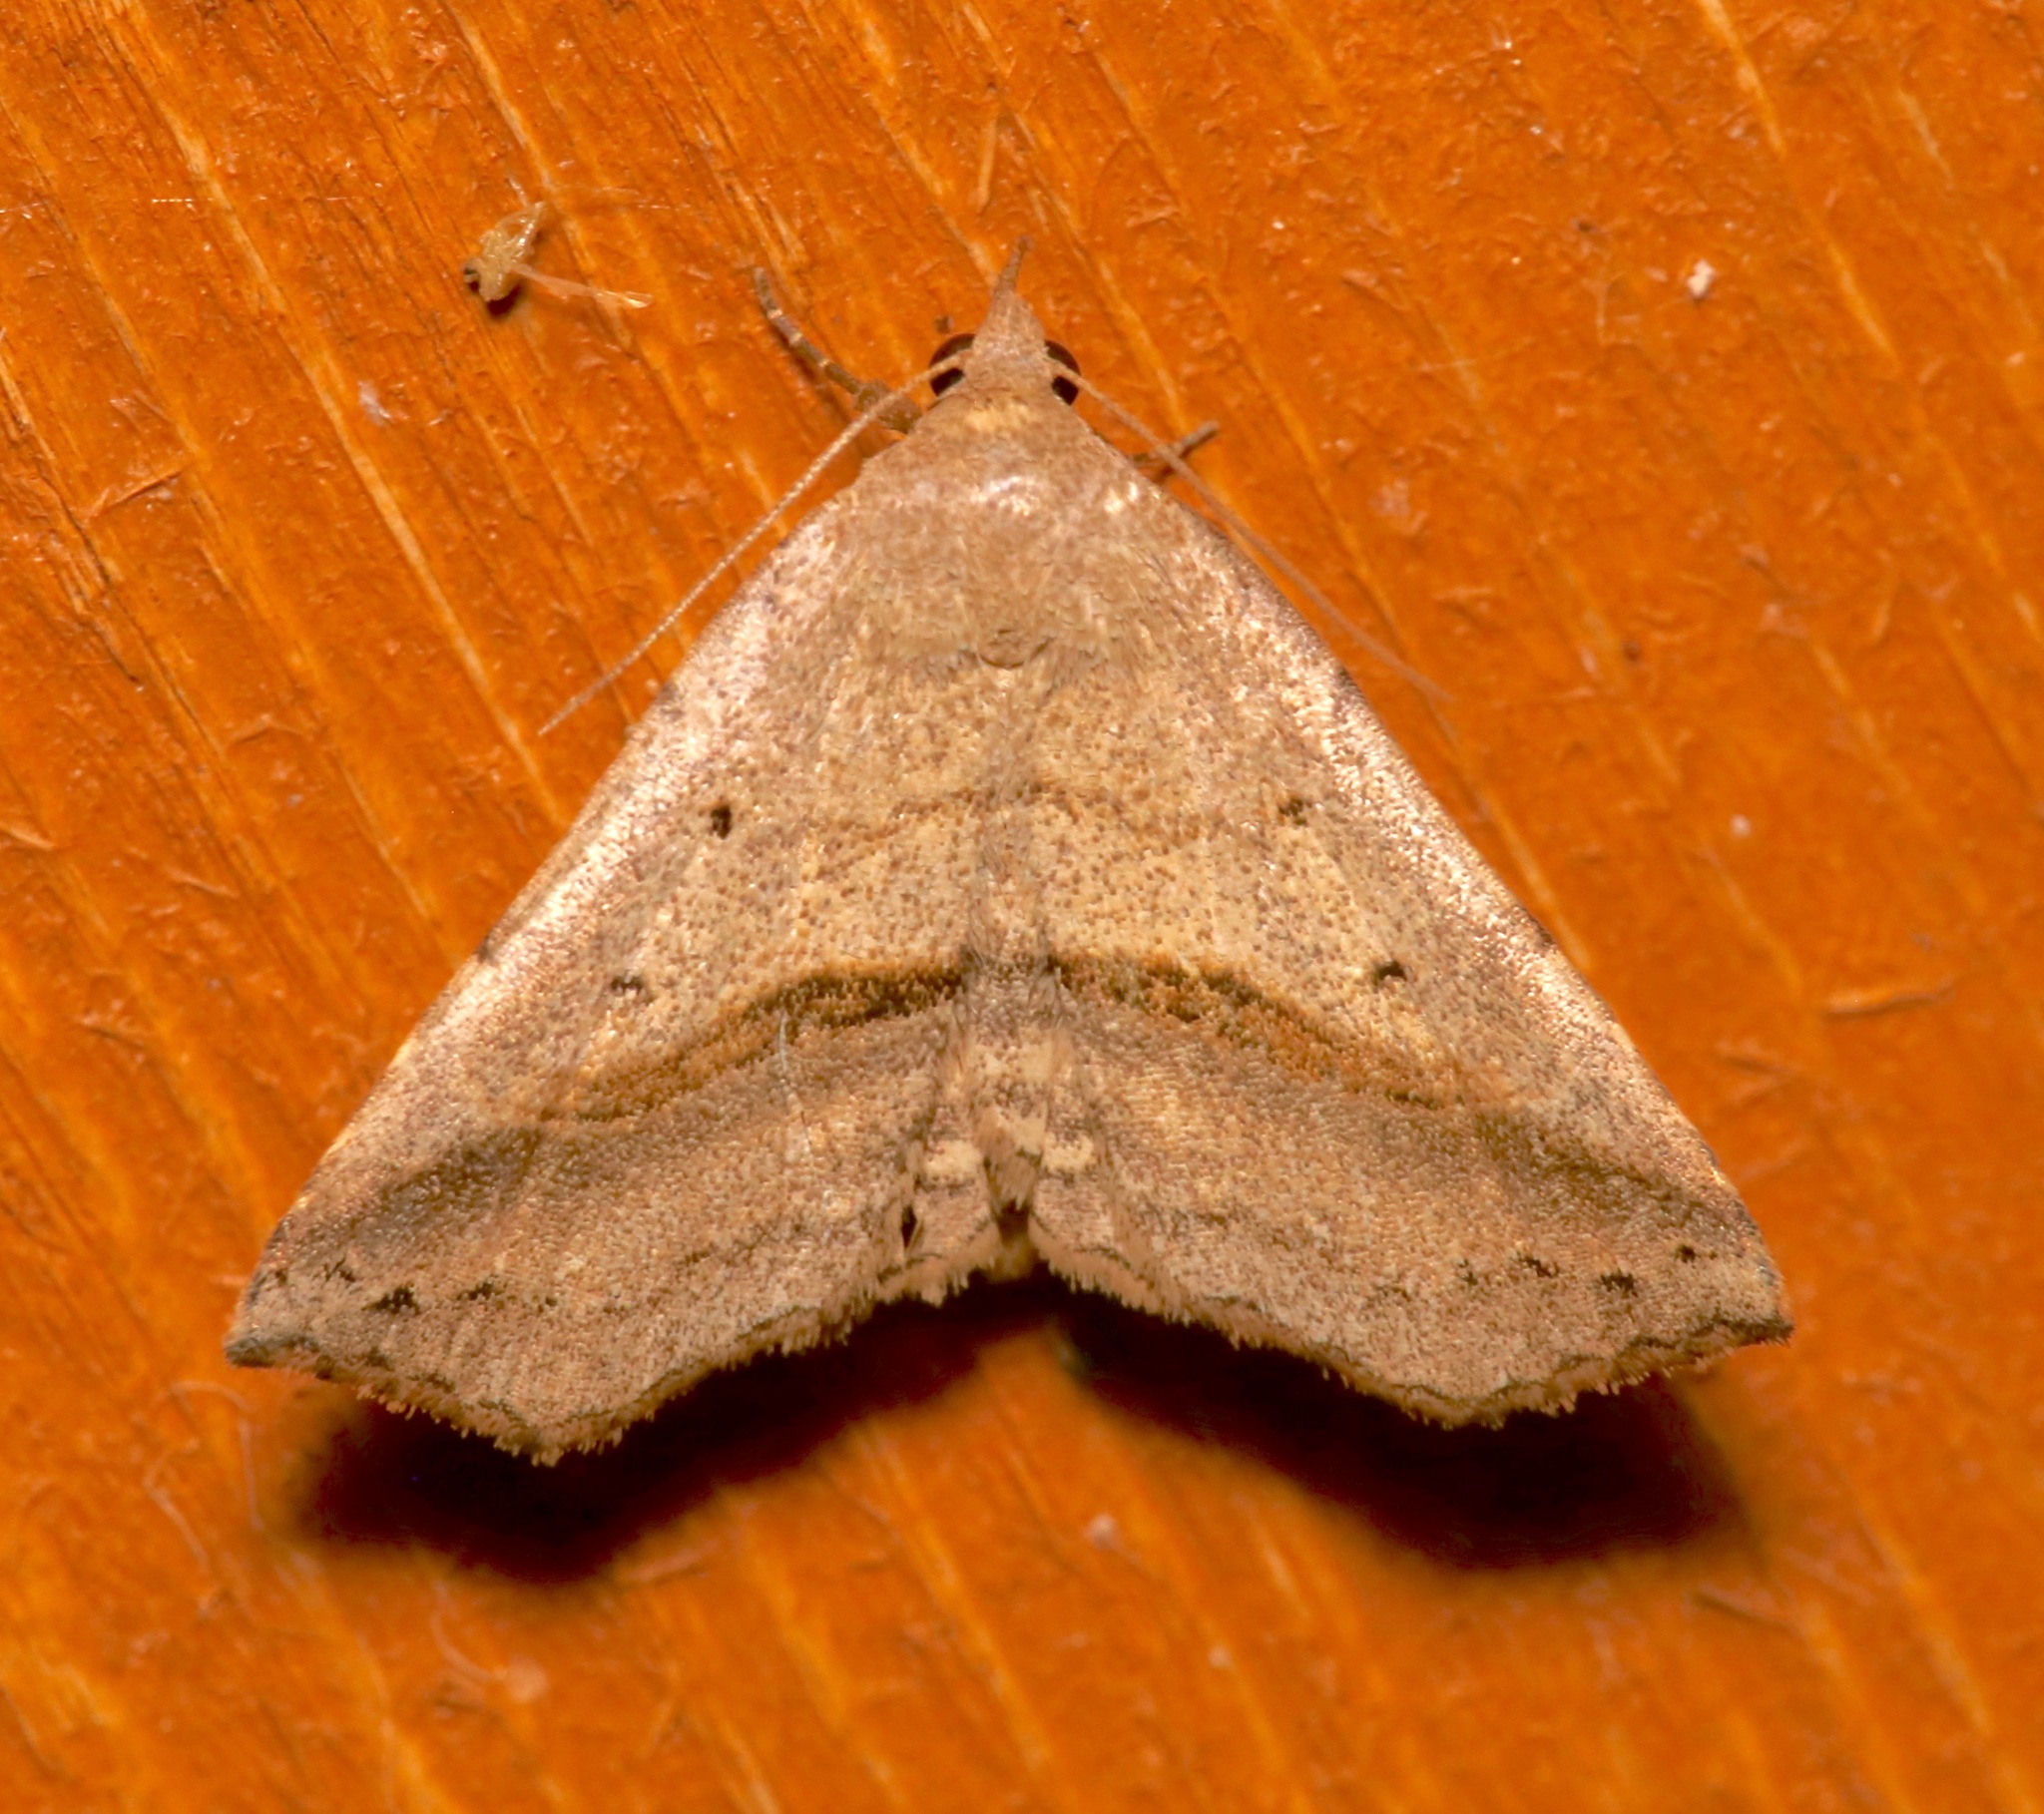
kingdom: Animalia
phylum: Arthropoda
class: Insecta
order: Lepidoptera
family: Erebidae
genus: Spargaloma
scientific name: Spargaloma perditalis
